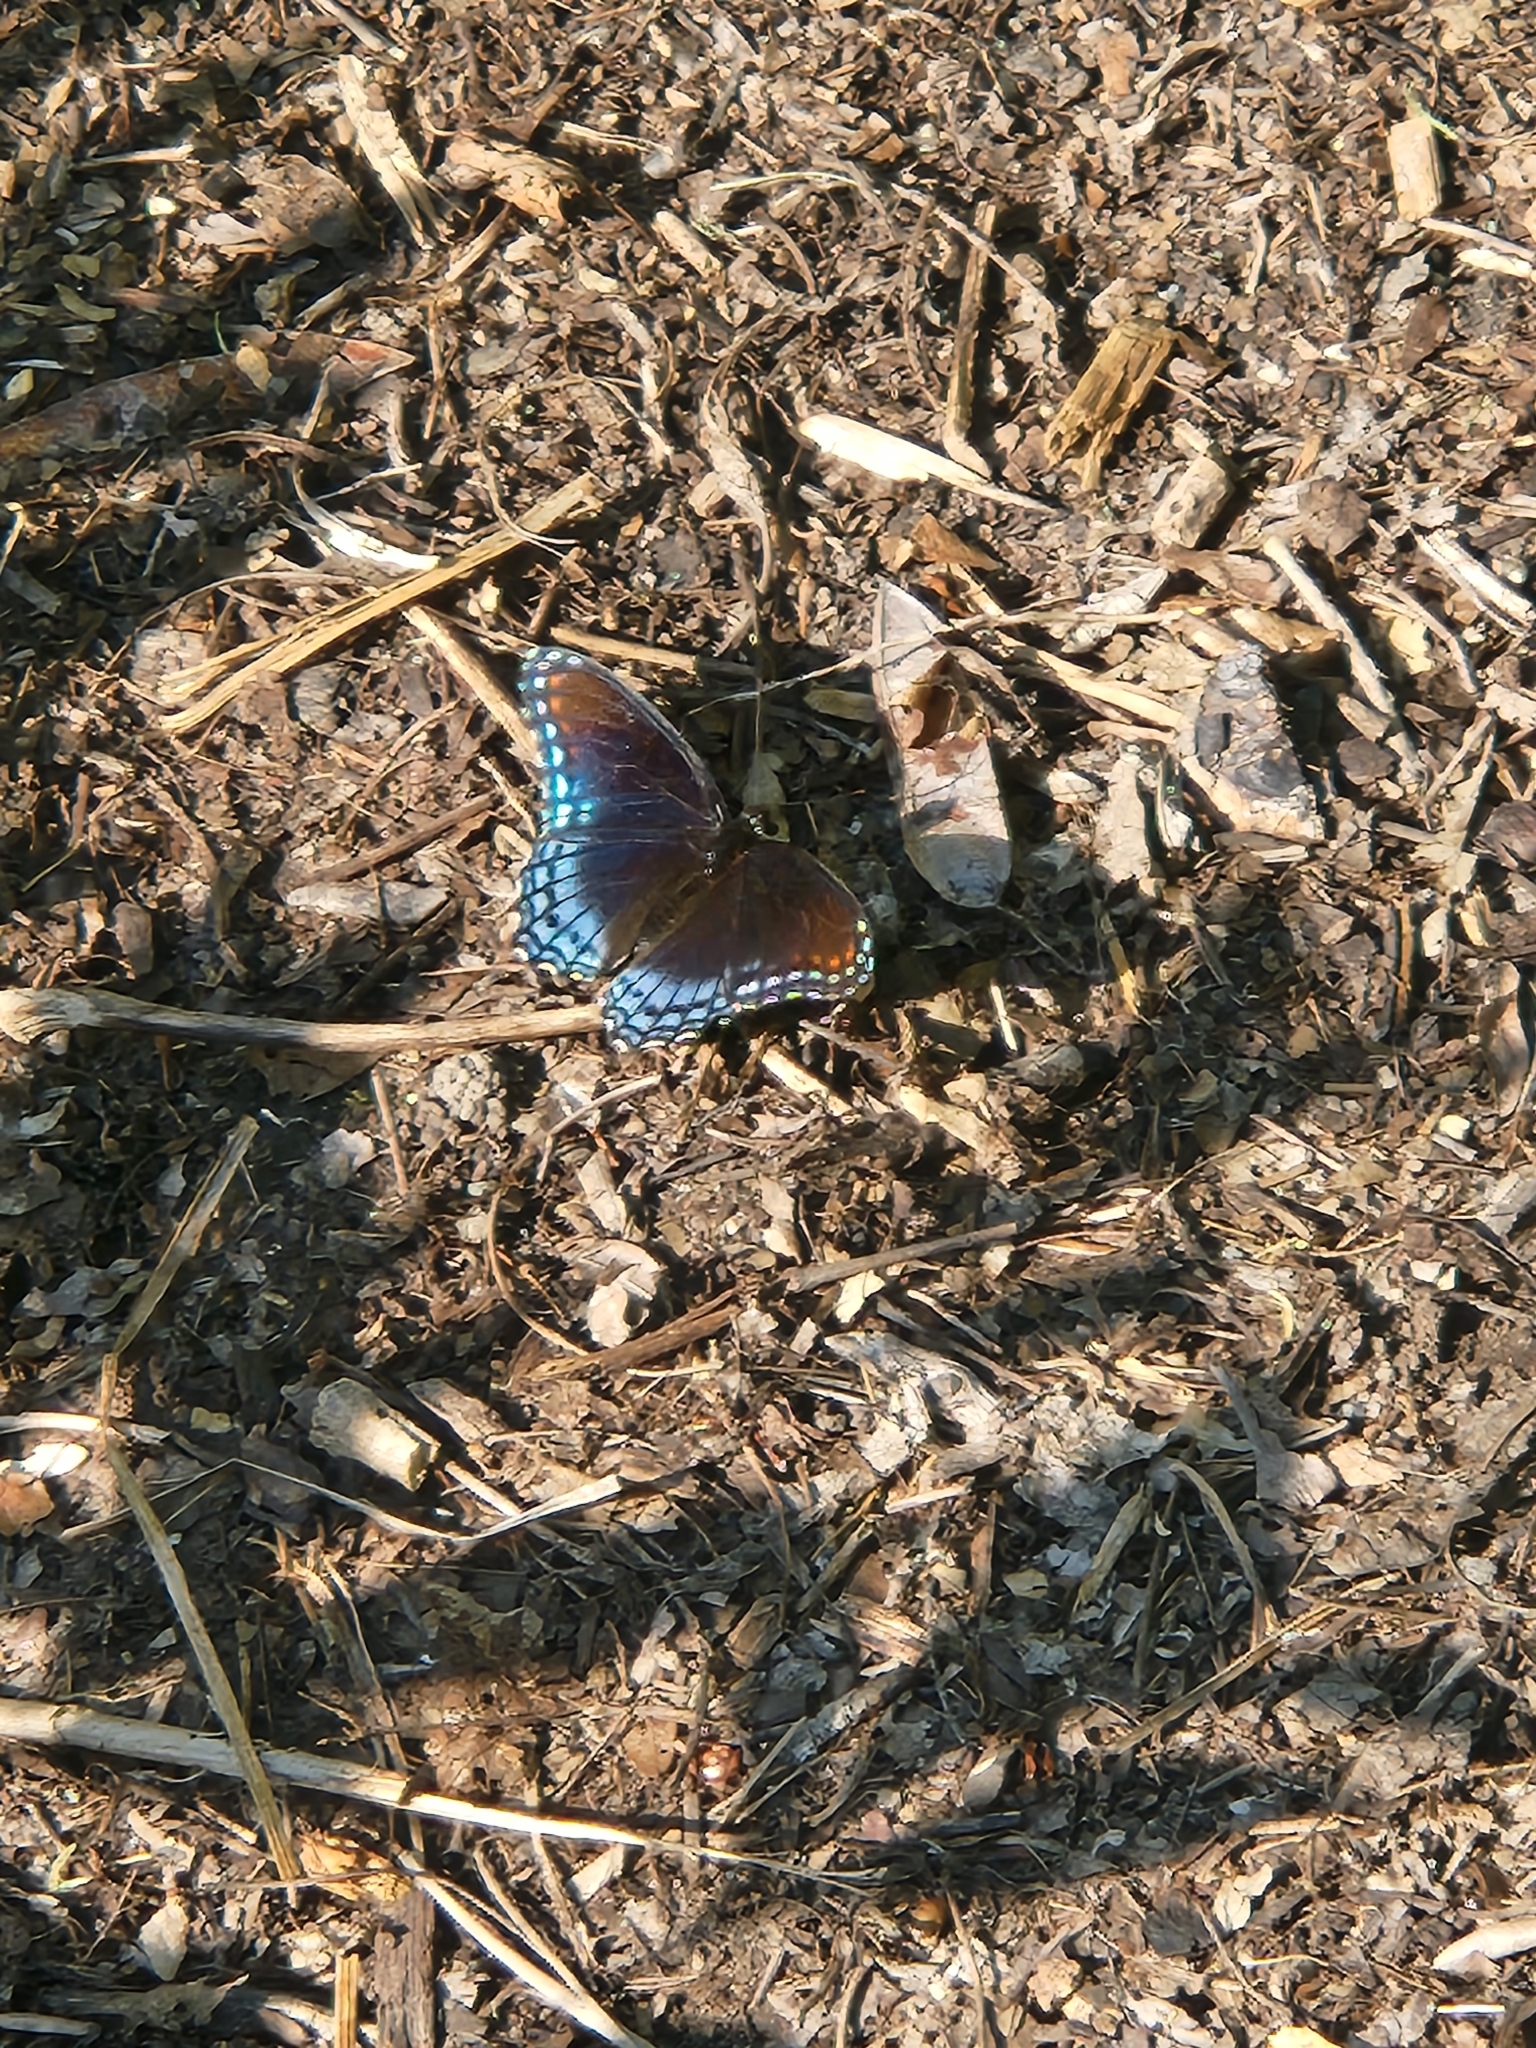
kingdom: Animalia
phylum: Arthropoda
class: Insecta
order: Lepidoptera
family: Nymphalidae
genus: Limenitis
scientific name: Limenitis arthemis
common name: Red-spotted admiral
